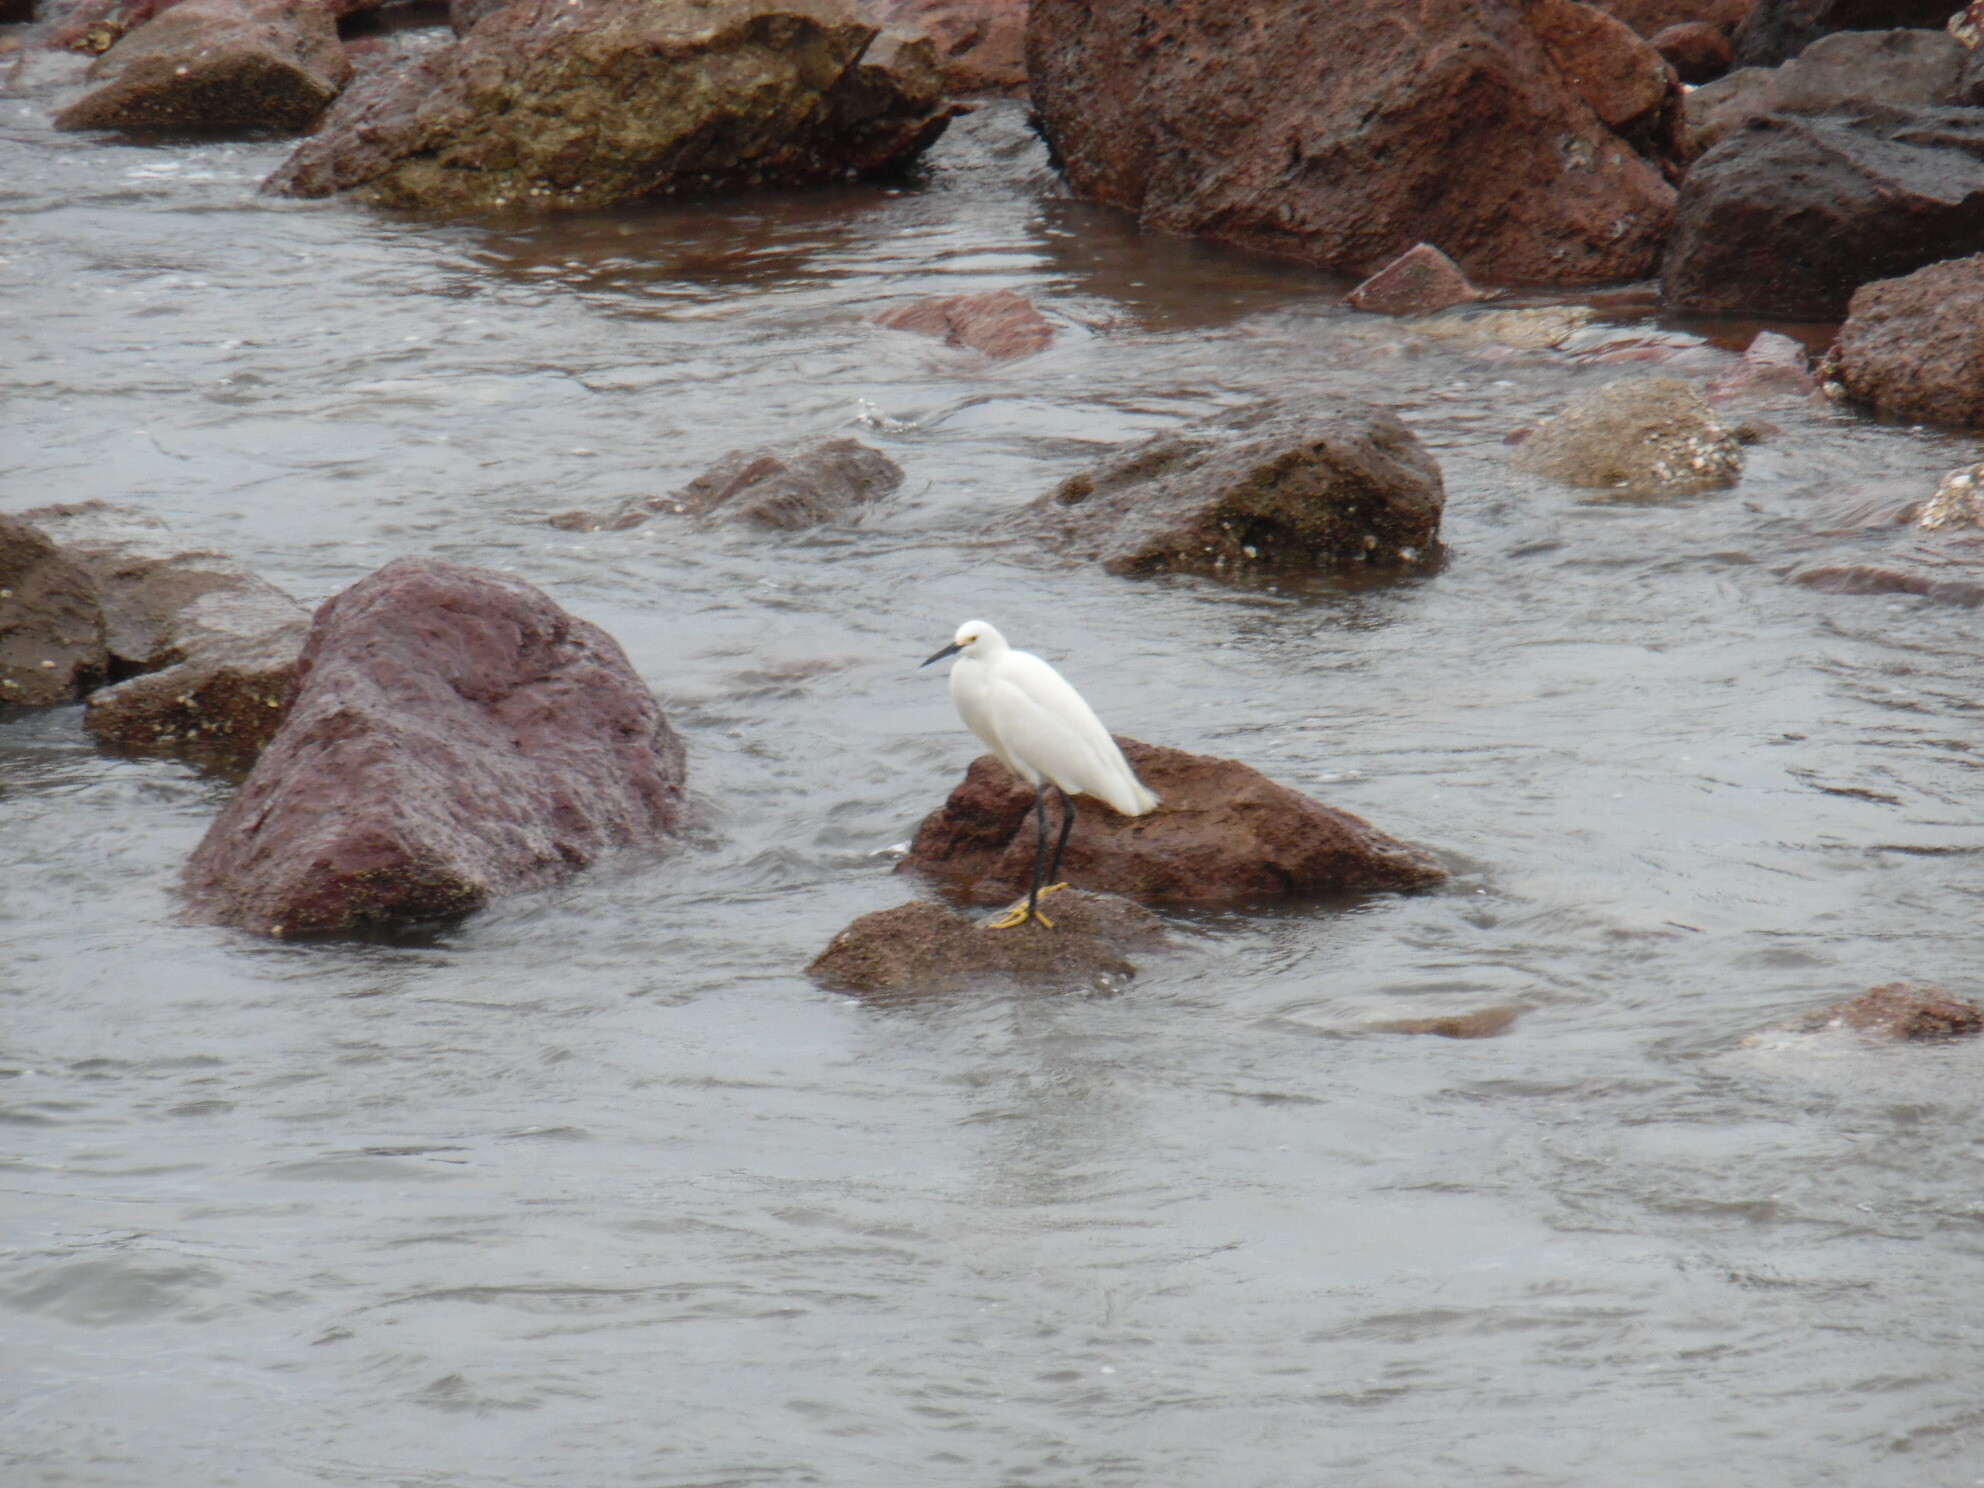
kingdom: Animalia
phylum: Chordata
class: Aves
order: Pelecaniformes
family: Ardeidae
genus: Egretta
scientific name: Egretta thula
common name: Snowy egret
